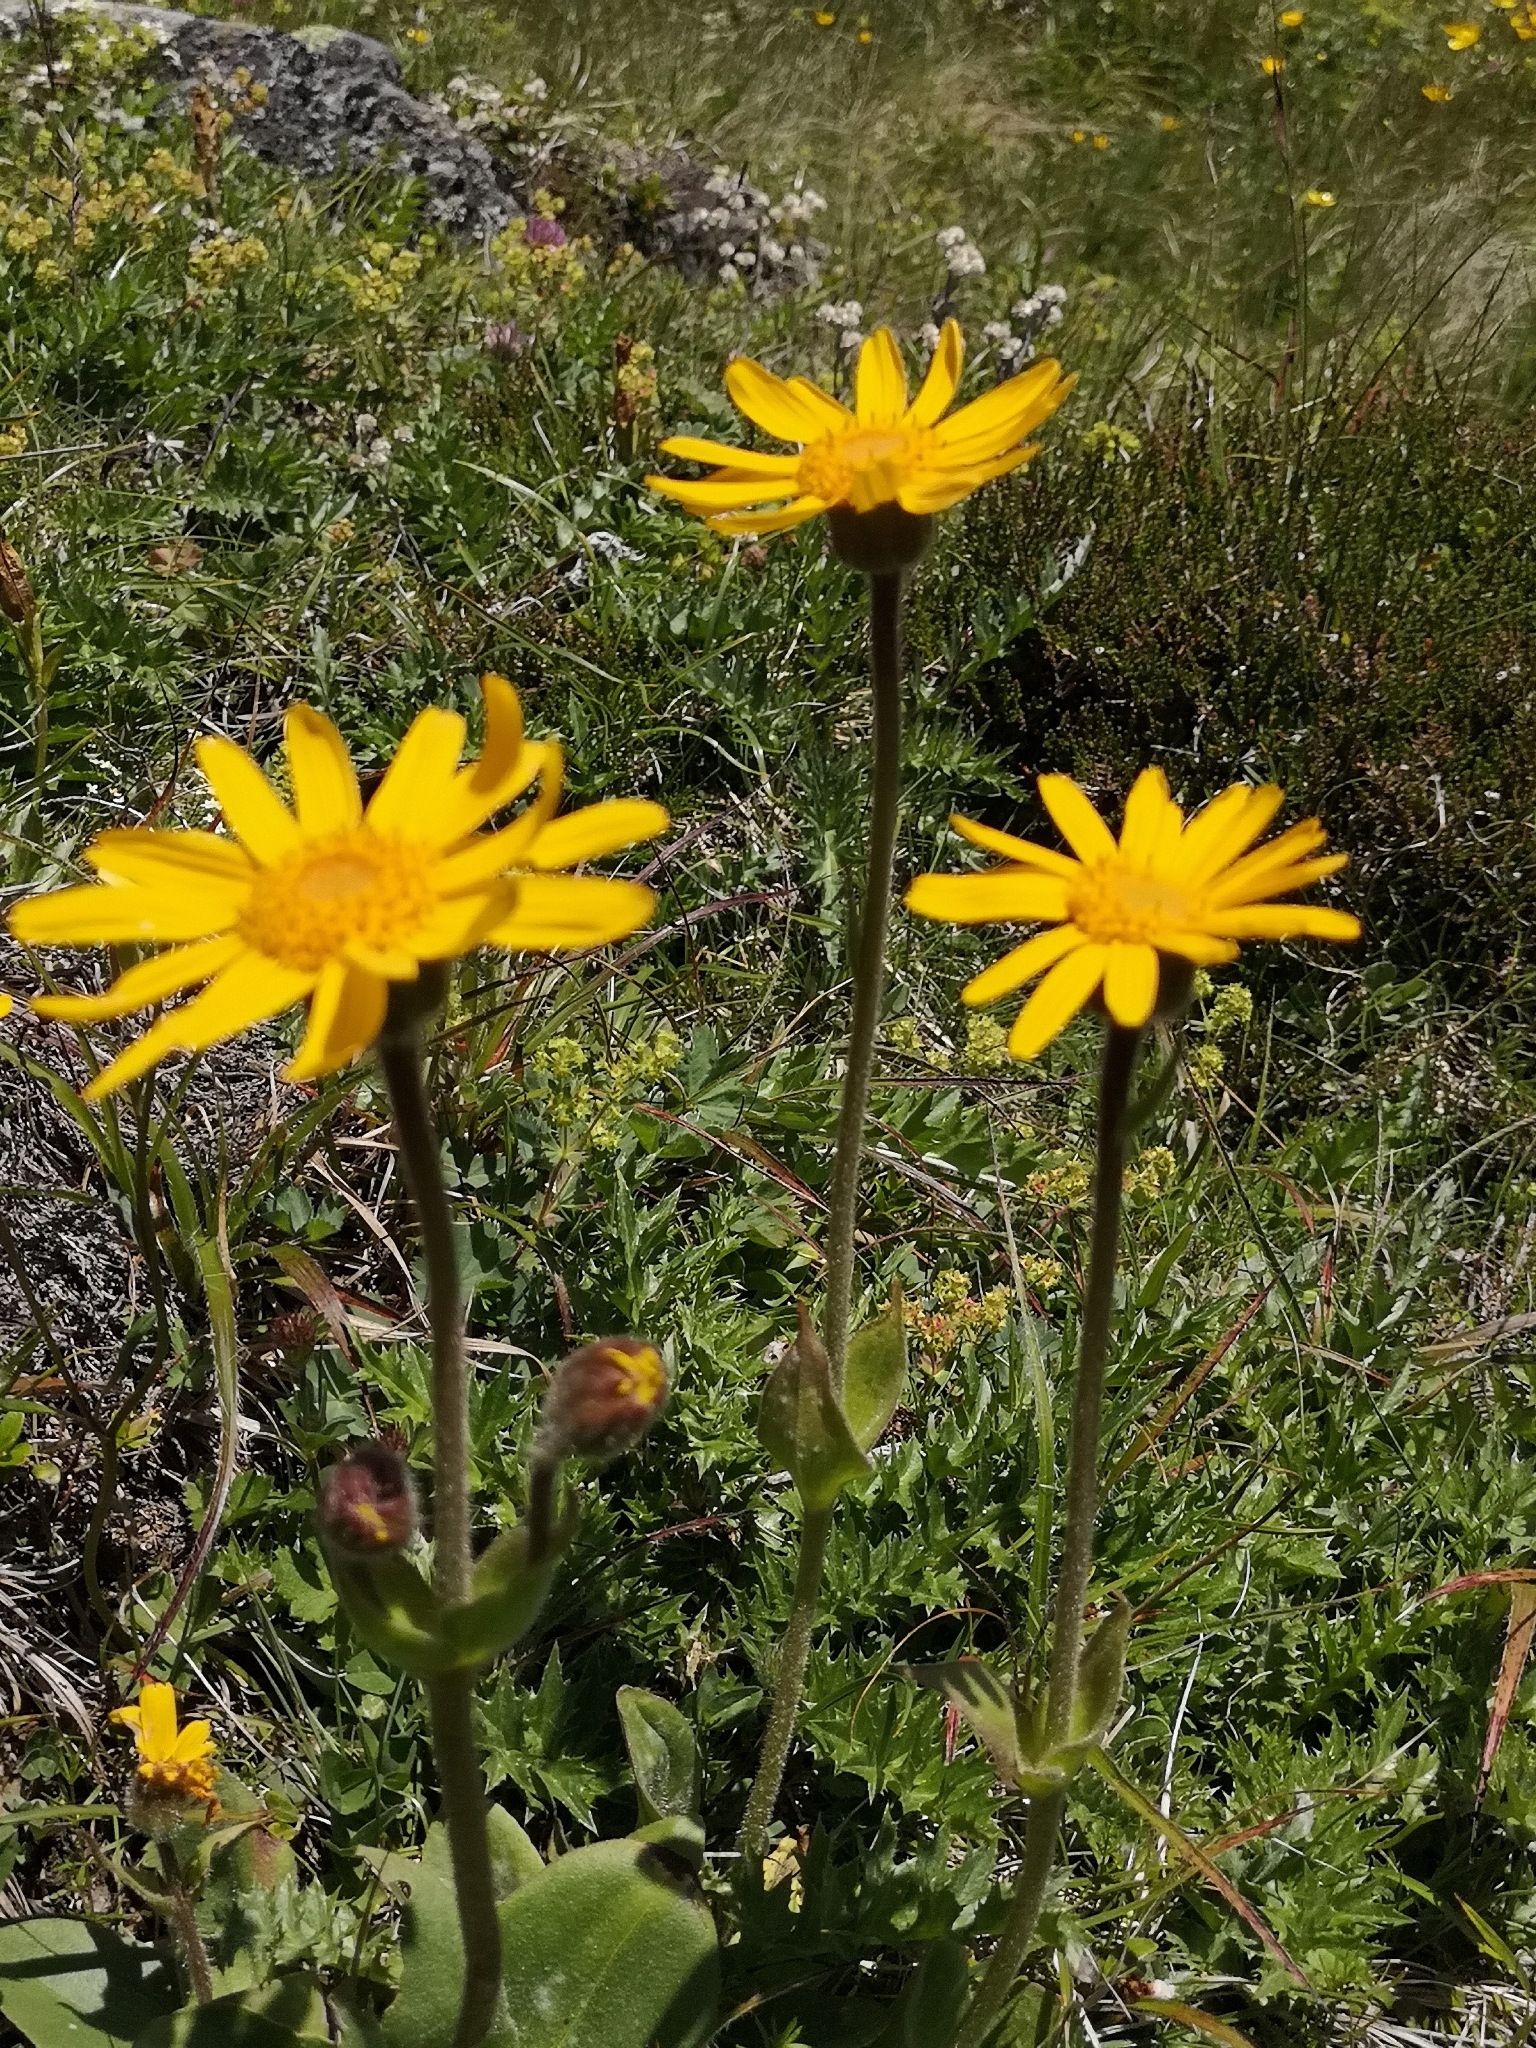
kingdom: Plantae
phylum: Tracheophyta
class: Magnoliopsida
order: Asterales
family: Asteraceae
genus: Arnica
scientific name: Arnica montana
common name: Leopard's bane
